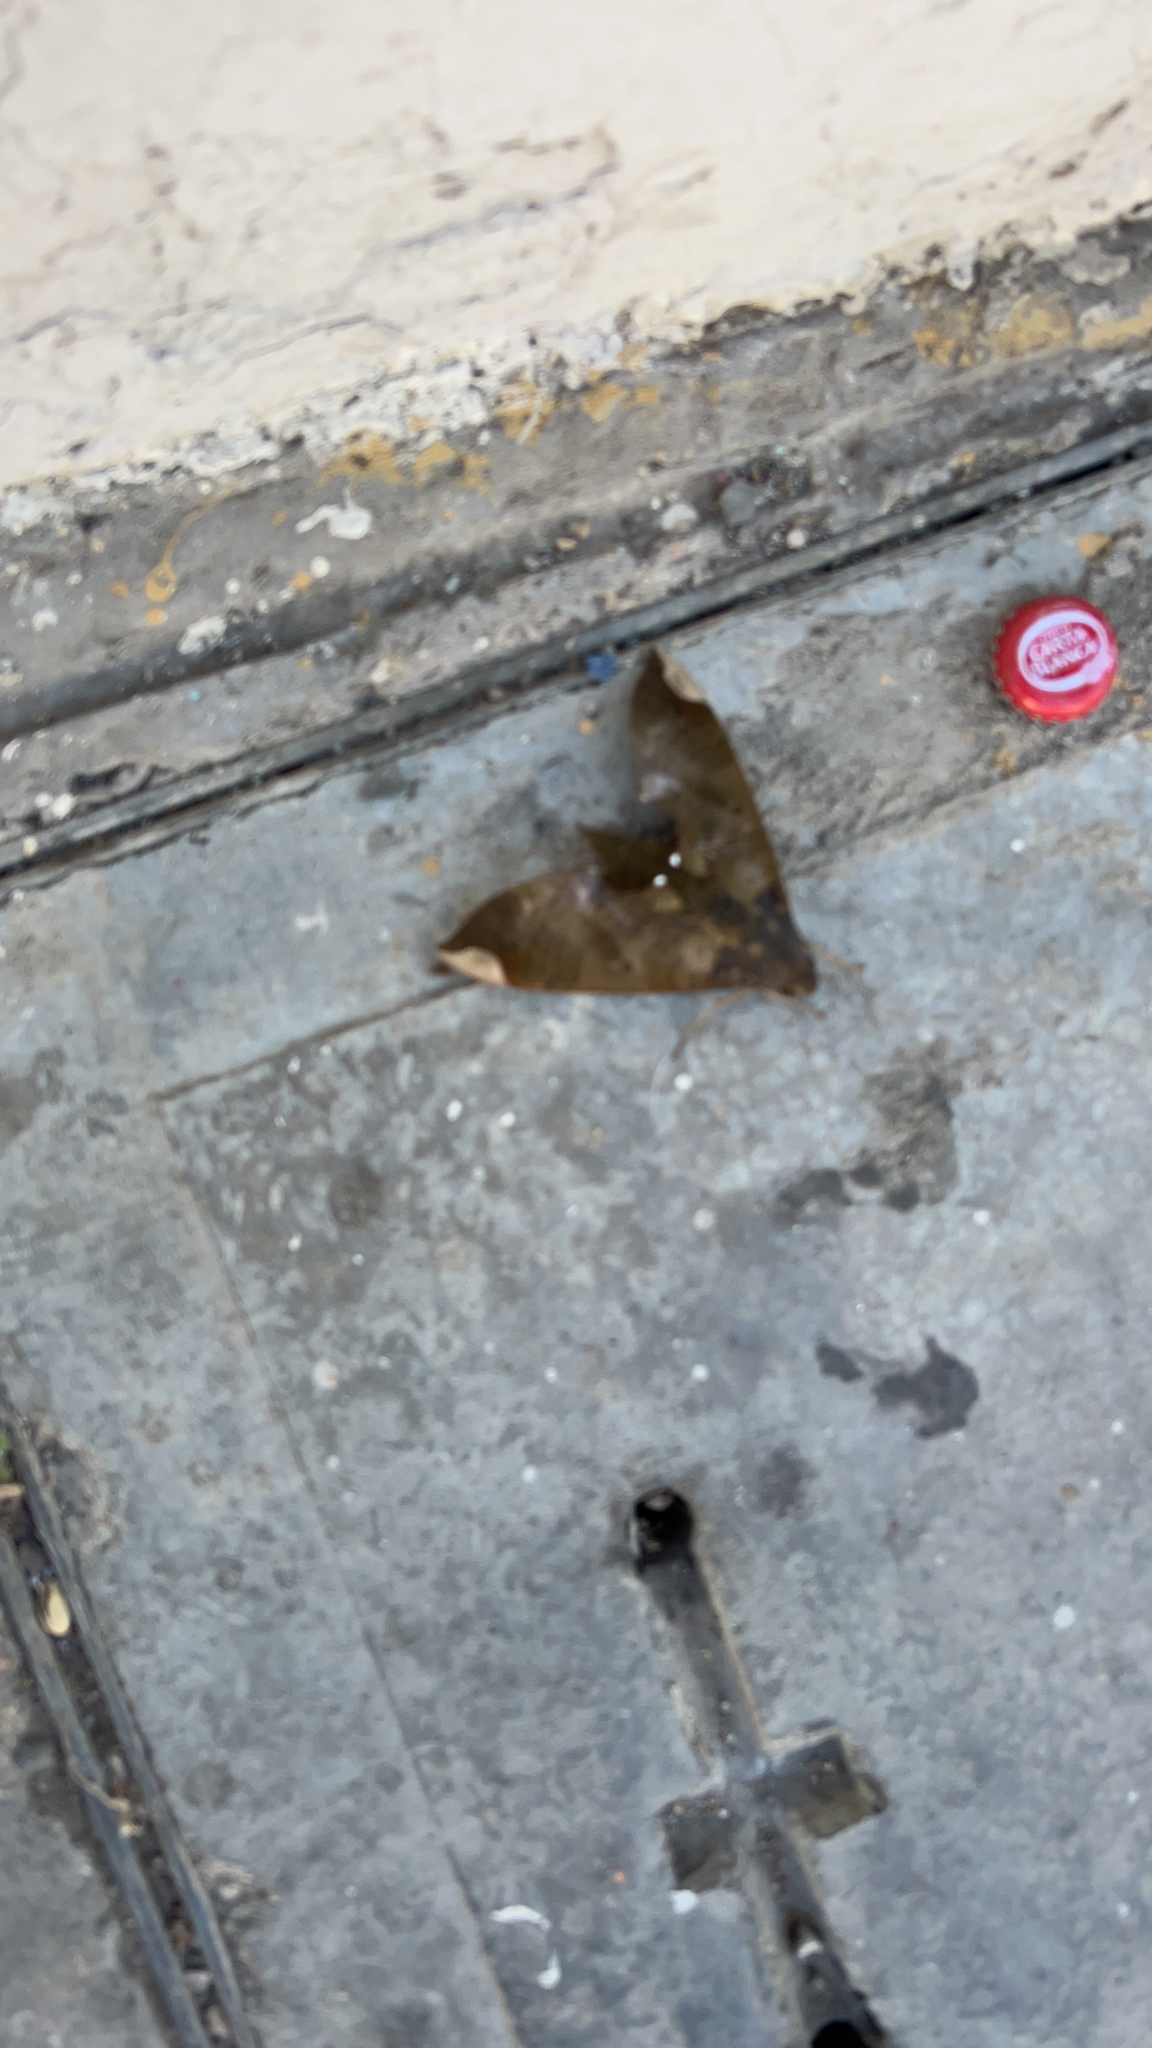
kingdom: Animalia
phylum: Arthropoda
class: Insecta
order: Lepidoptera
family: Sphingidae
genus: Pachylia
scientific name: Pachylia ficus
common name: Fig sphinx
